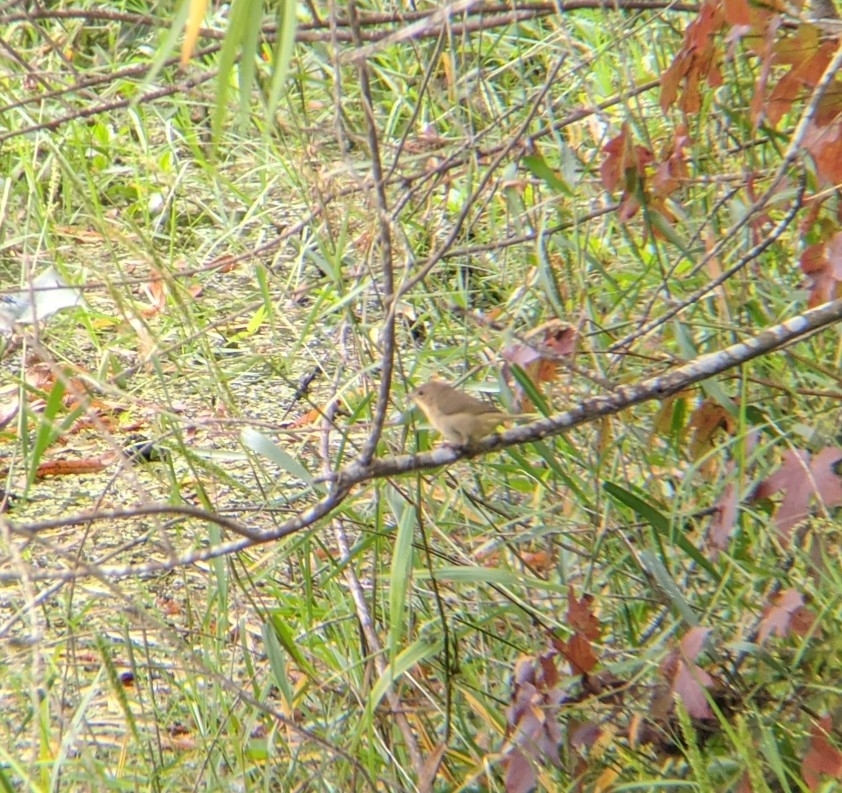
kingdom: Animalia
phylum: Chordata
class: Aves
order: Passeriformes
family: Parulidae
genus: Geothlypis
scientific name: Geothlypis trichas
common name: Common yellowthroat
